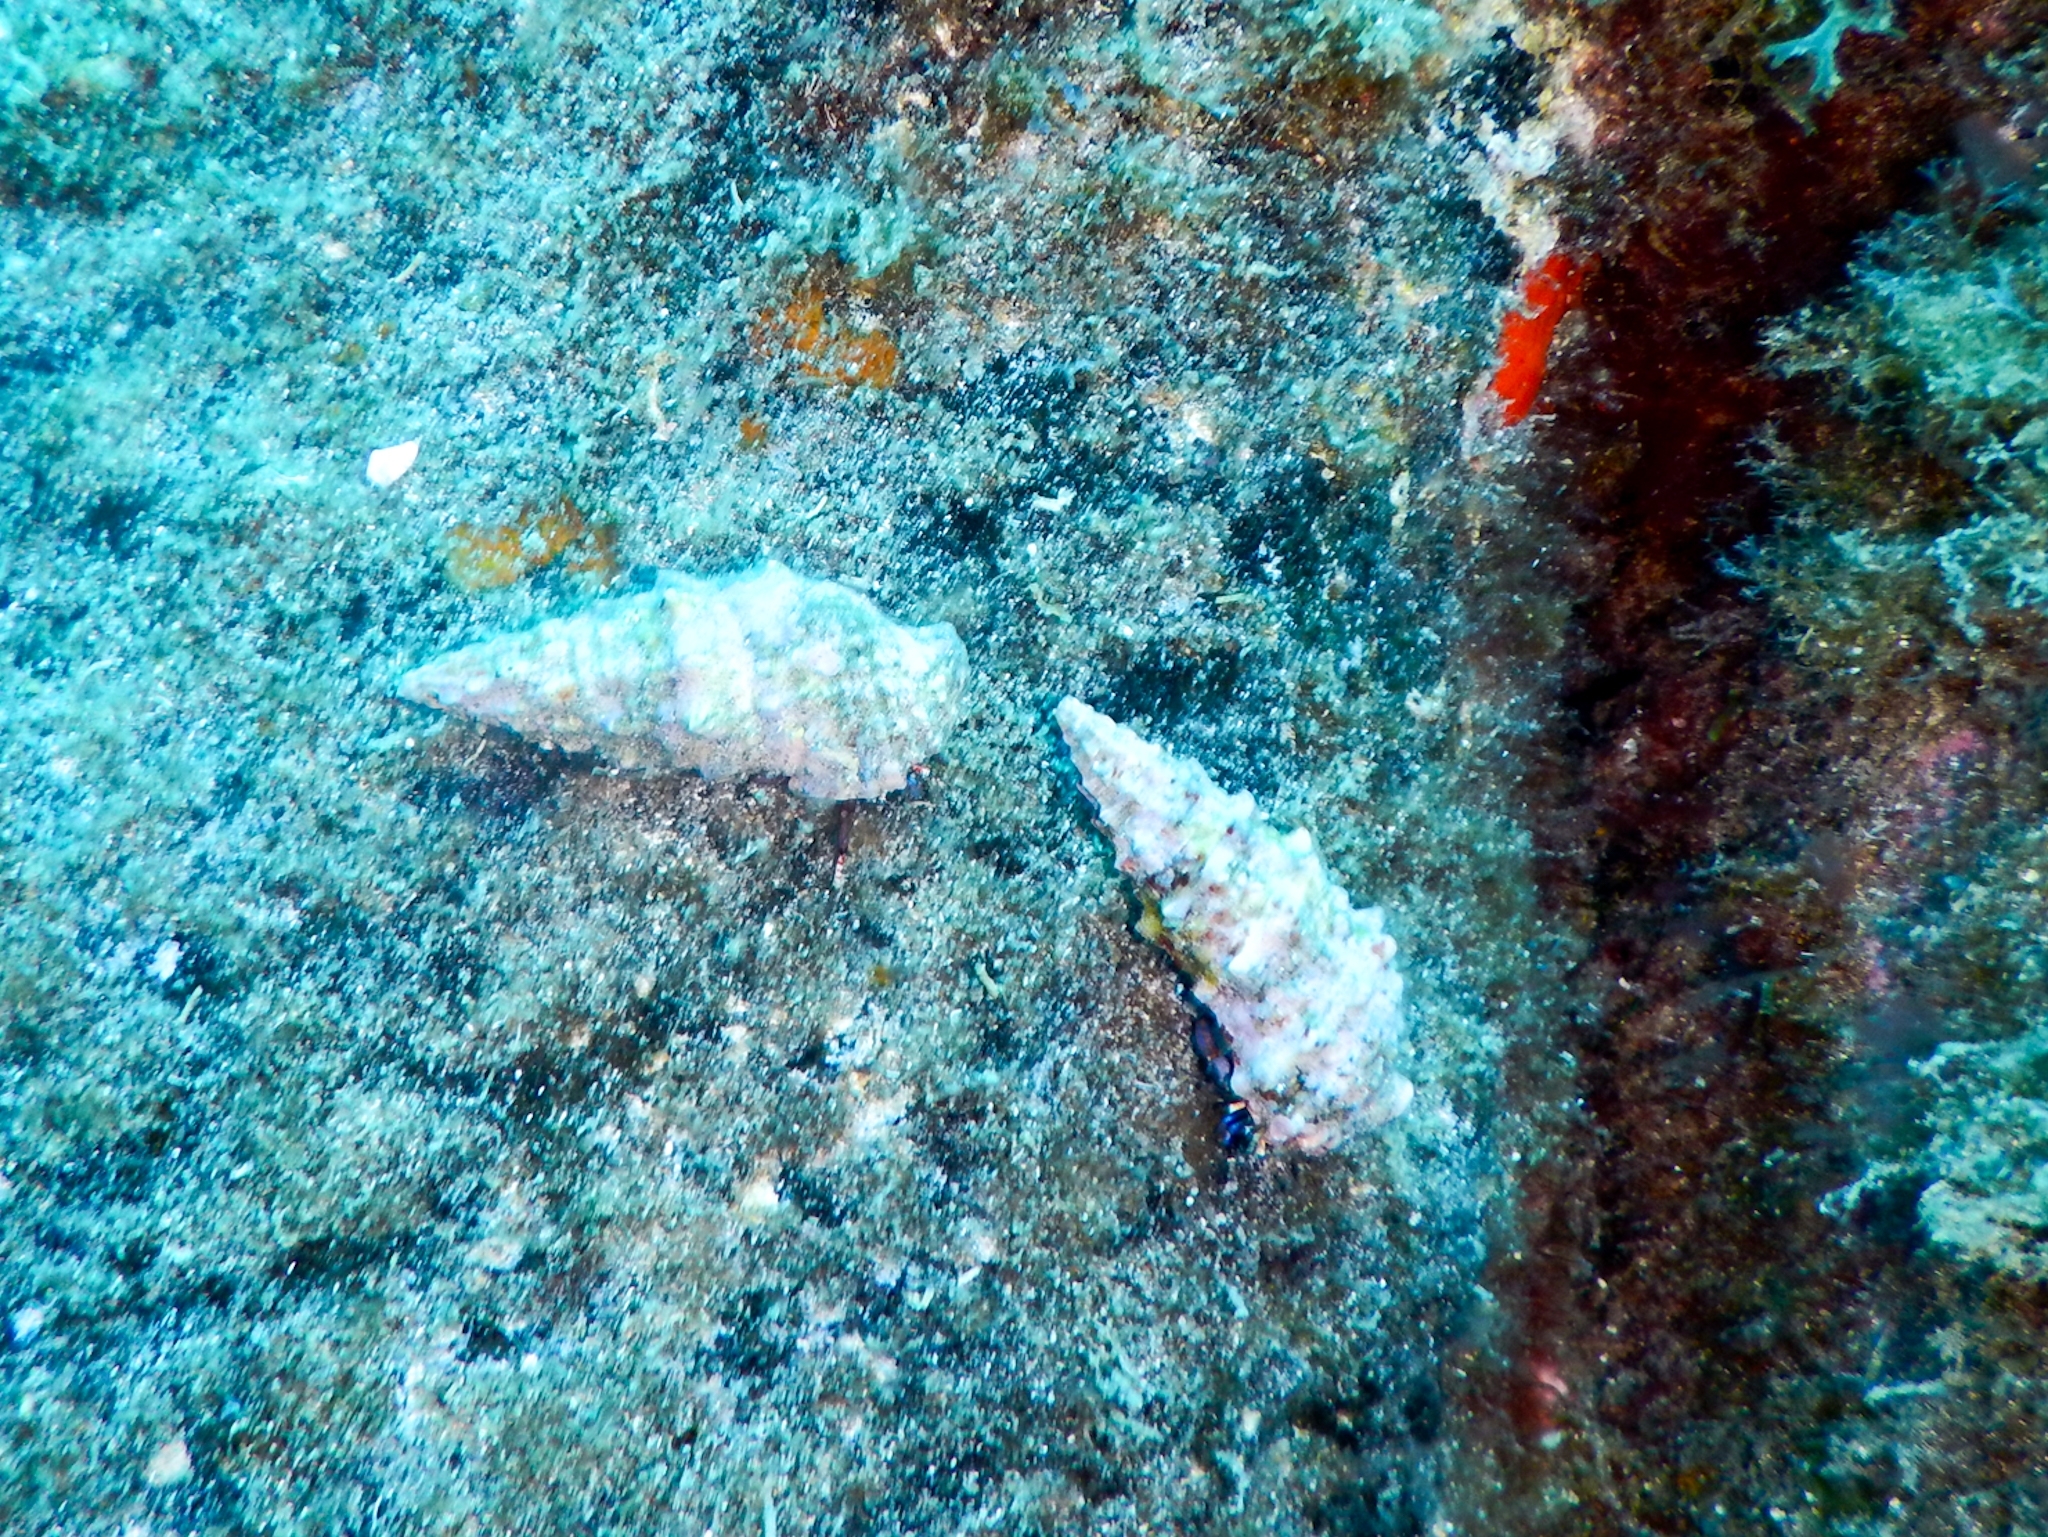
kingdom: Animalia
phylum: Mollusca
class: Gastropoda
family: Cerithiidae
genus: Cerithium
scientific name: Cerithium vulgatum
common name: European cerith
